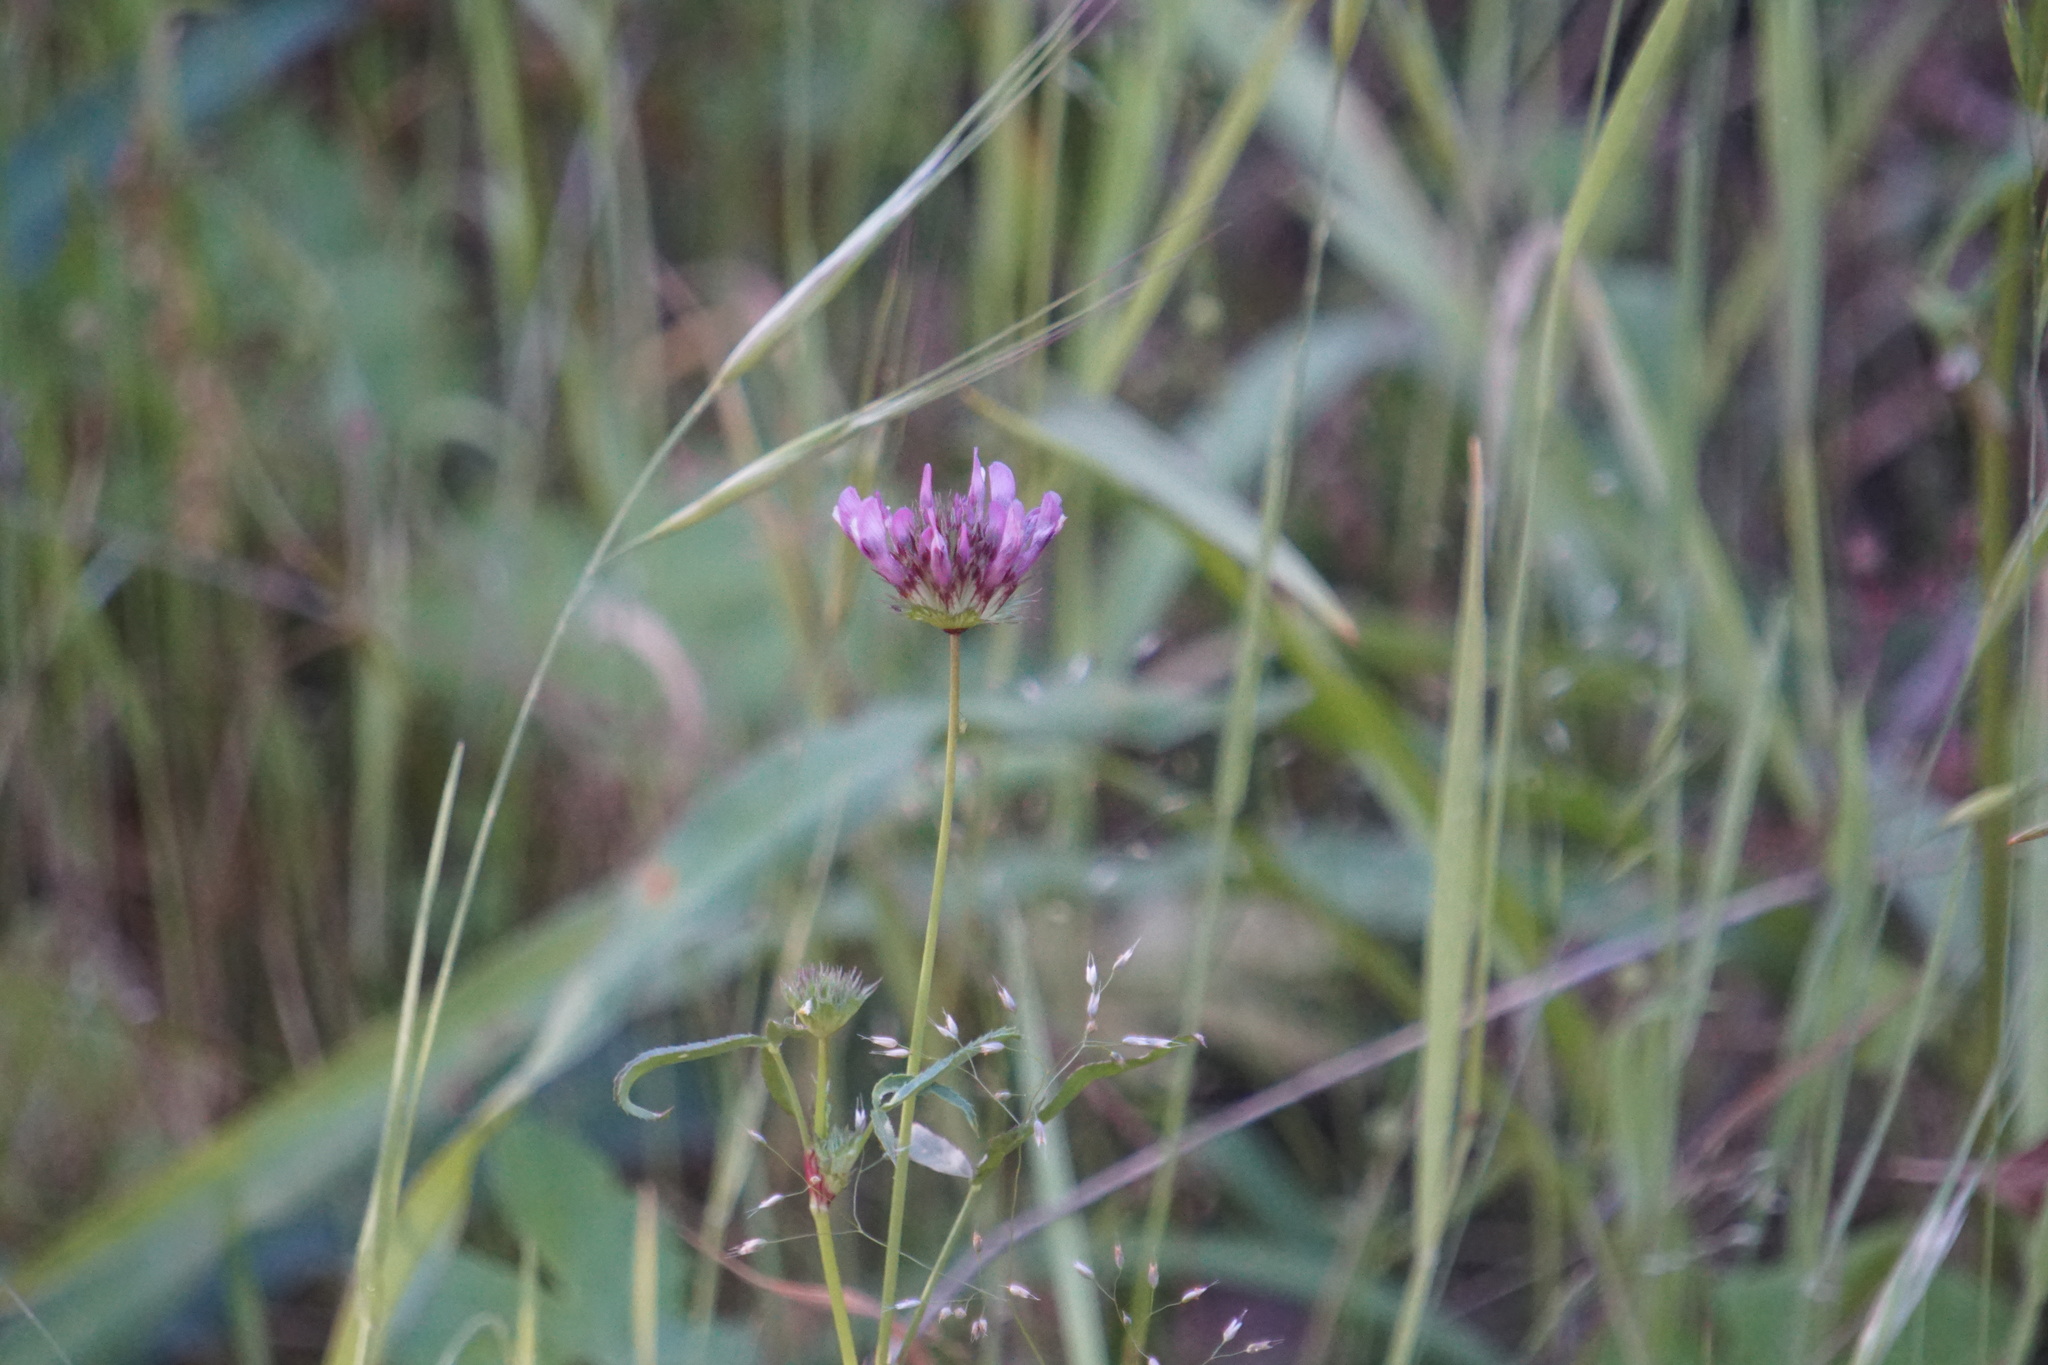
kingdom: Plantae
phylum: Tracheophyta
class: Magnoliopsida
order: Fabales
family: Fabaceae
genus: Trifolium
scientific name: Trifolium willdenovii
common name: Tomcat clover
